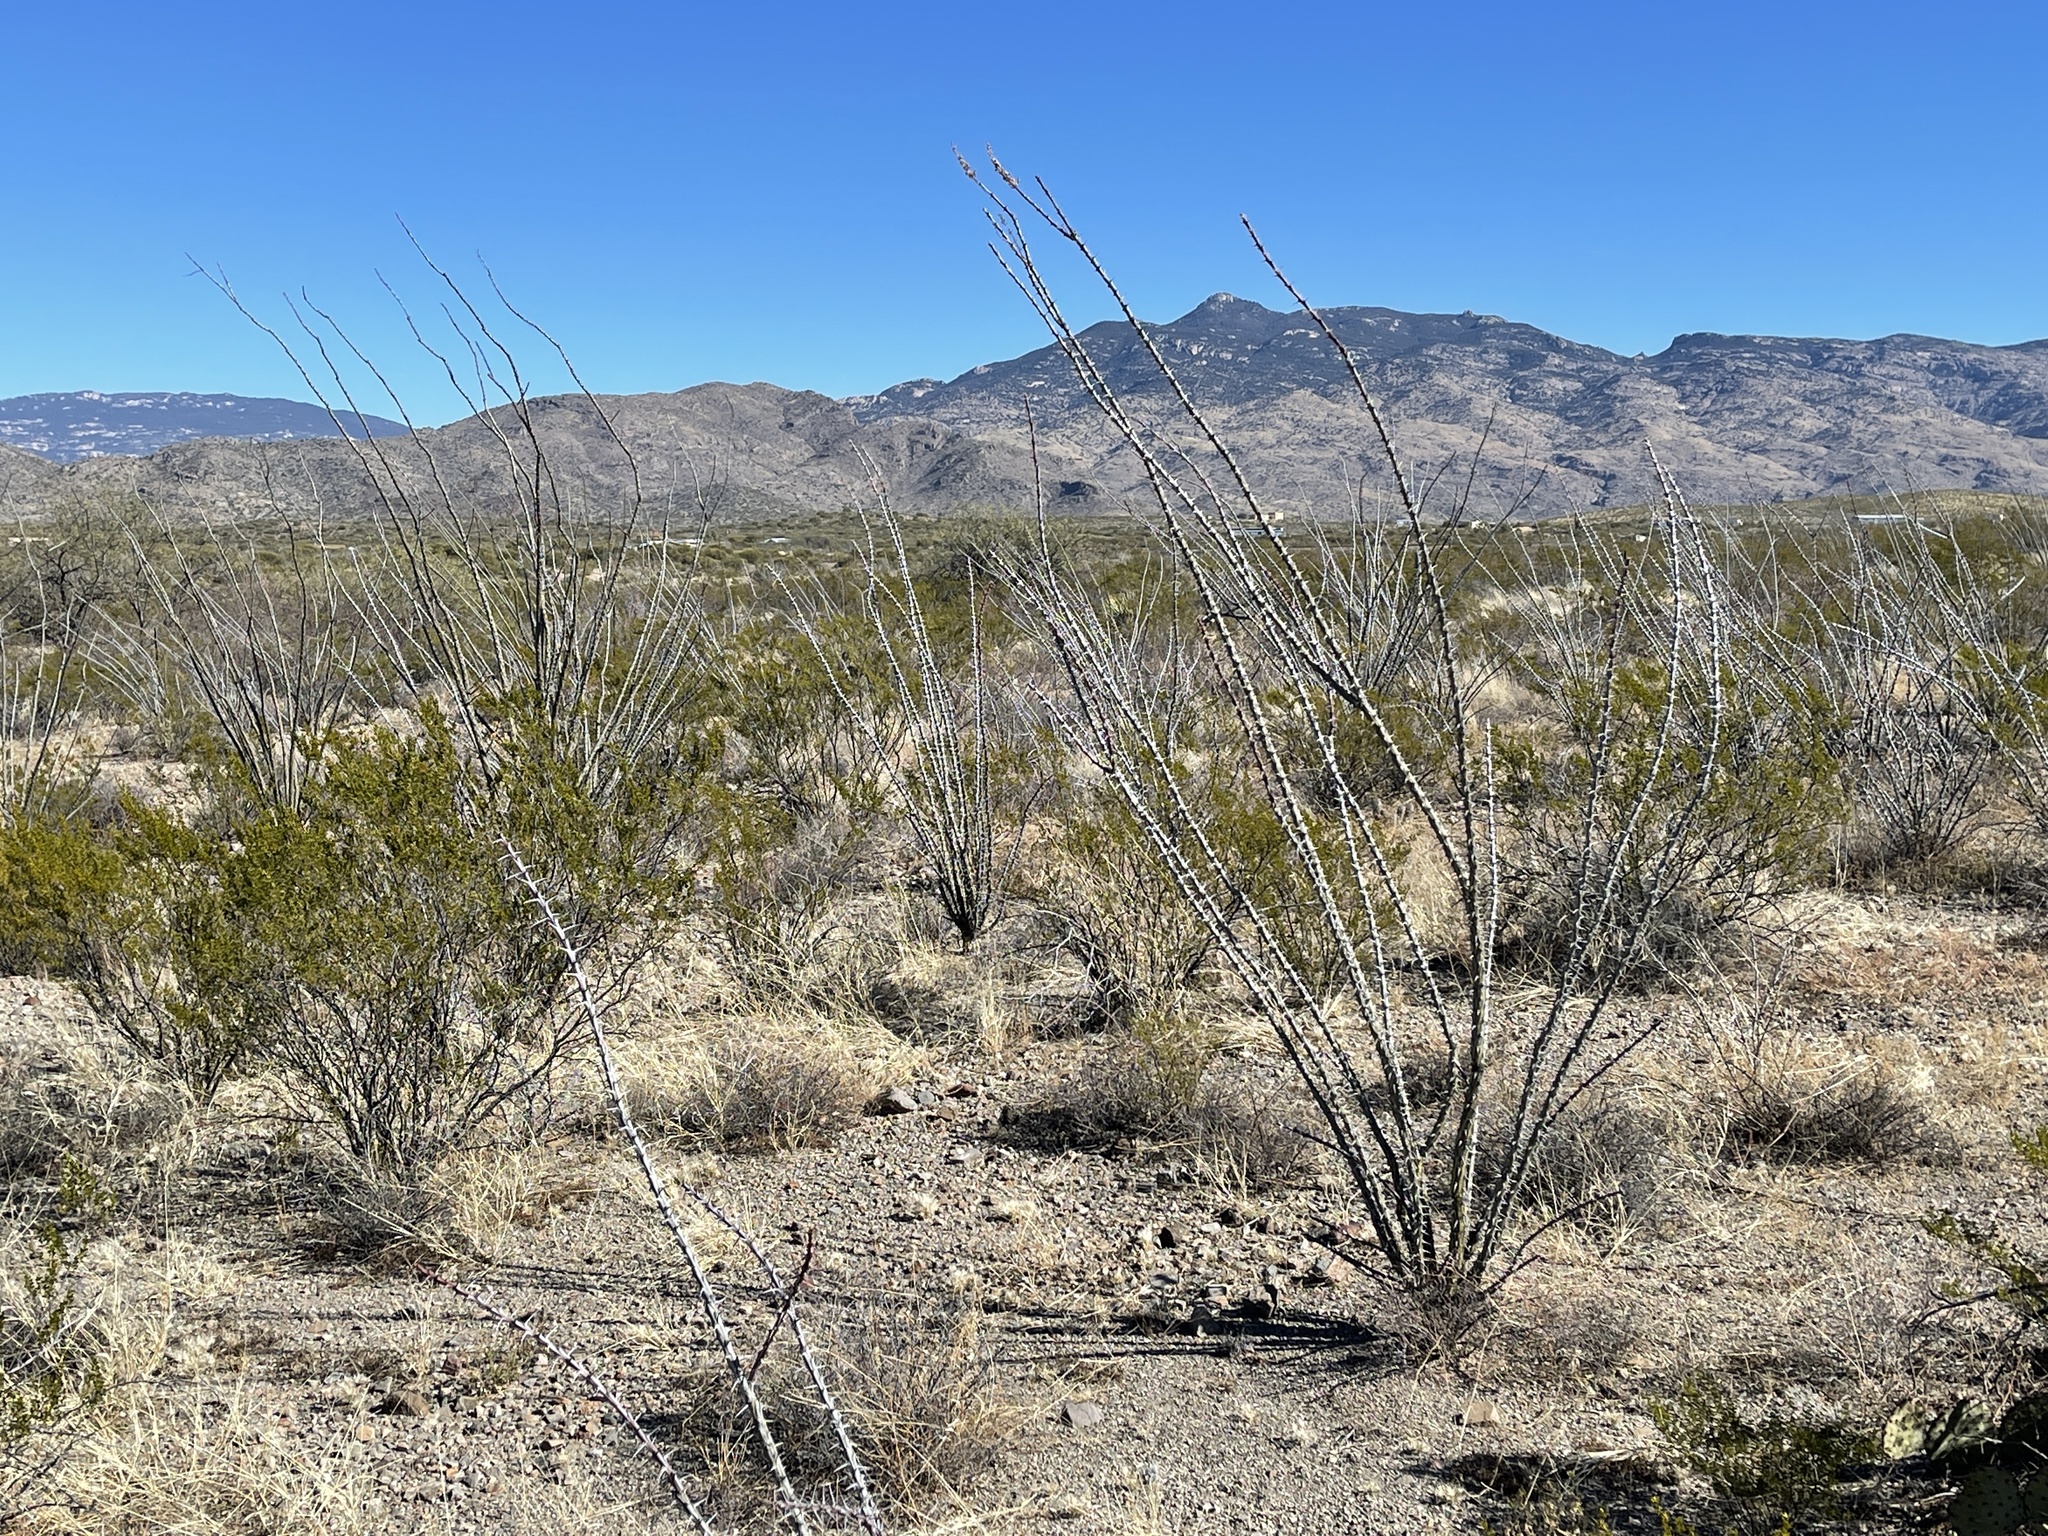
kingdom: Plantae
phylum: Tracheophyta
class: Magnoliopsida
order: Ericales
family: Fouquieriaceae
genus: Fouquieria
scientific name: Fouquieria splendens
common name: Vine-cactus
